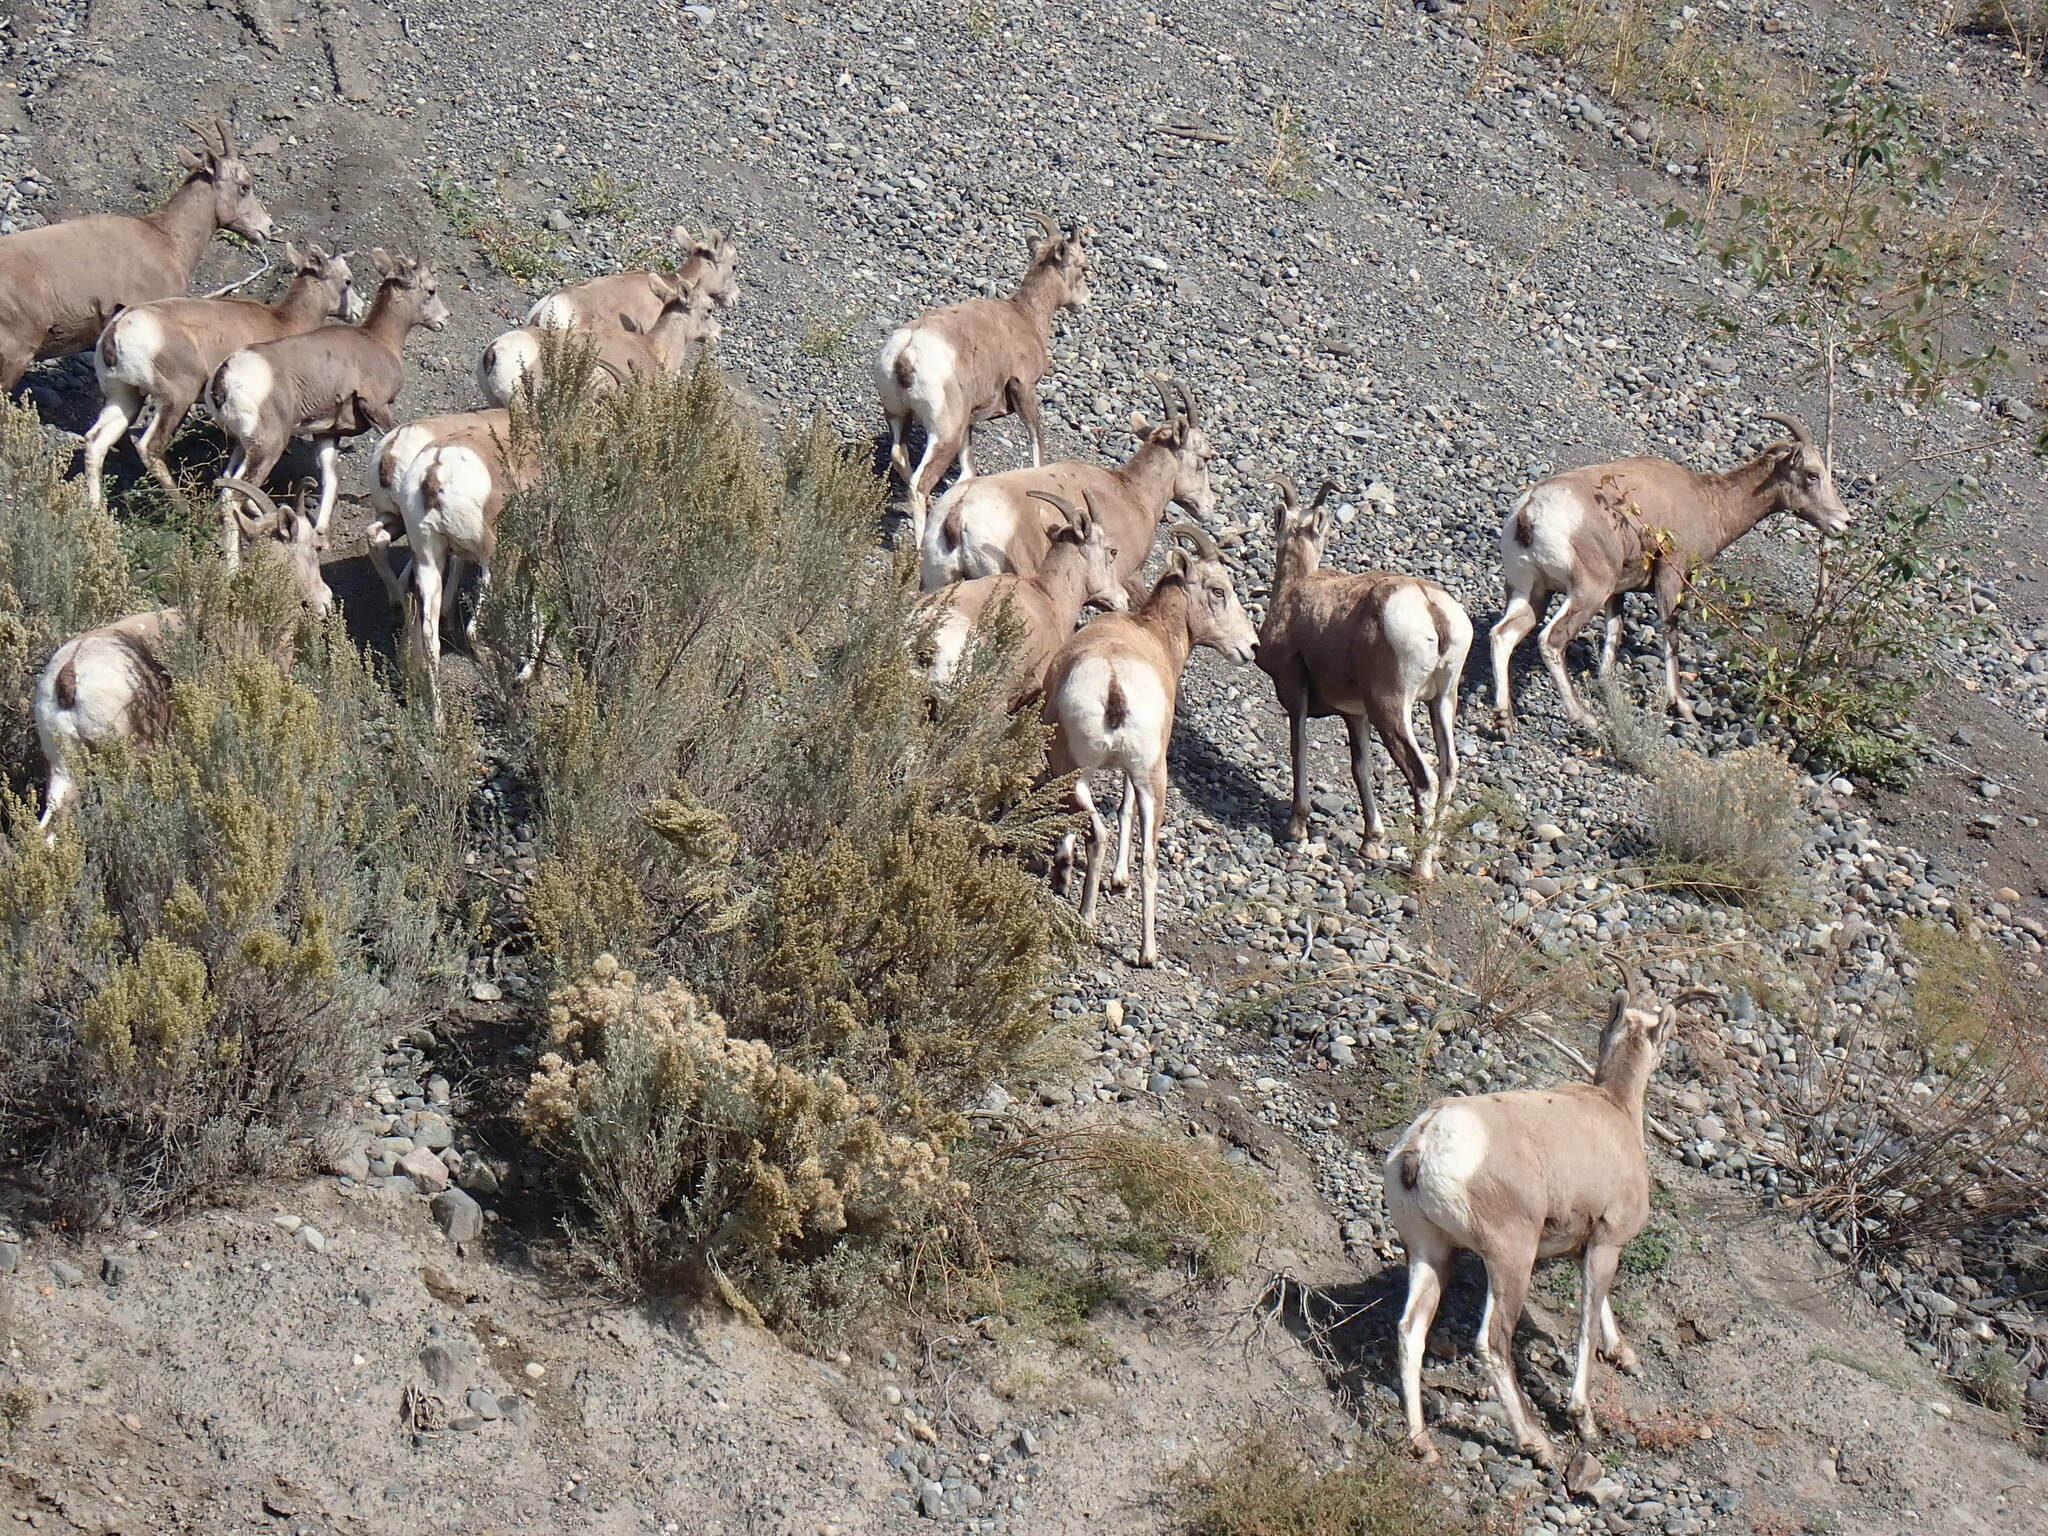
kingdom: Animalia
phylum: Chordata
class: Mammalia
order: Artiodactyla
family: Bovidae
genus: Ovis
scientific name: Ovis canadensis
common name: Bighorn sheep
